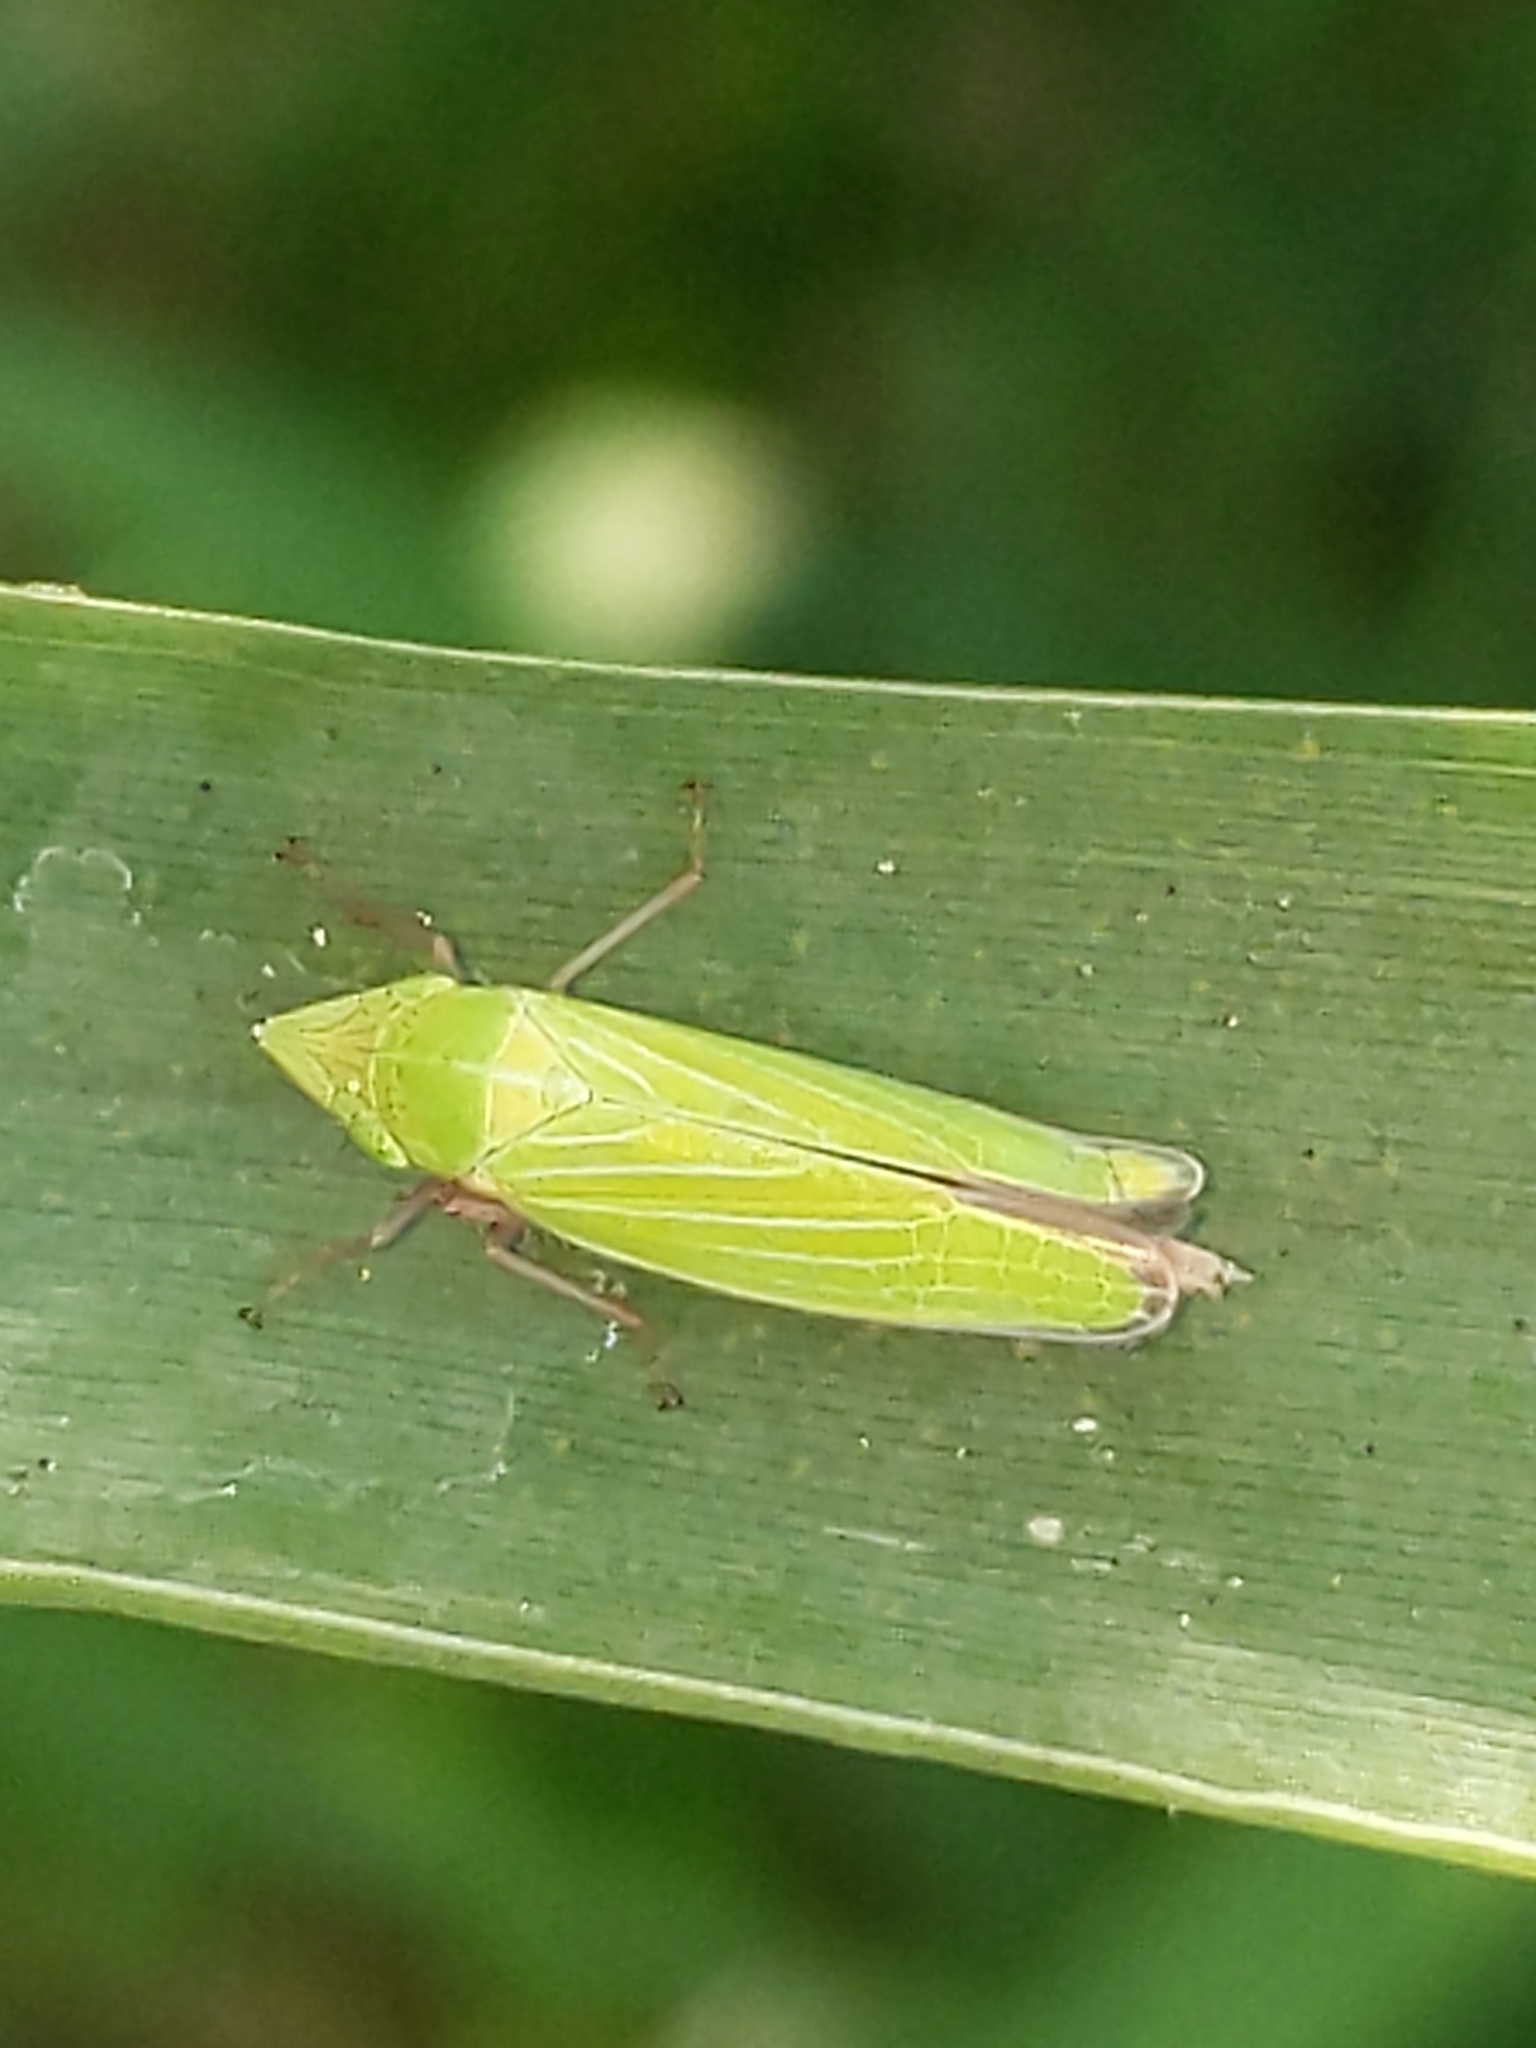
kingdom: Animalia
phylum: Arthropoda
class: Insecta
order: Hemiptera
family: Cicadellidae
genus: Draeculacephala
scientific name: Draeculacephala
